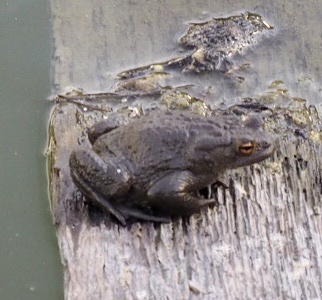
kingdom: Animalia
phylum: Chordata
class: Amphibia
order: Anura
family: Bufonidae
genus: Bufo
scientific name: Bufo bufo
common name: Common toad
